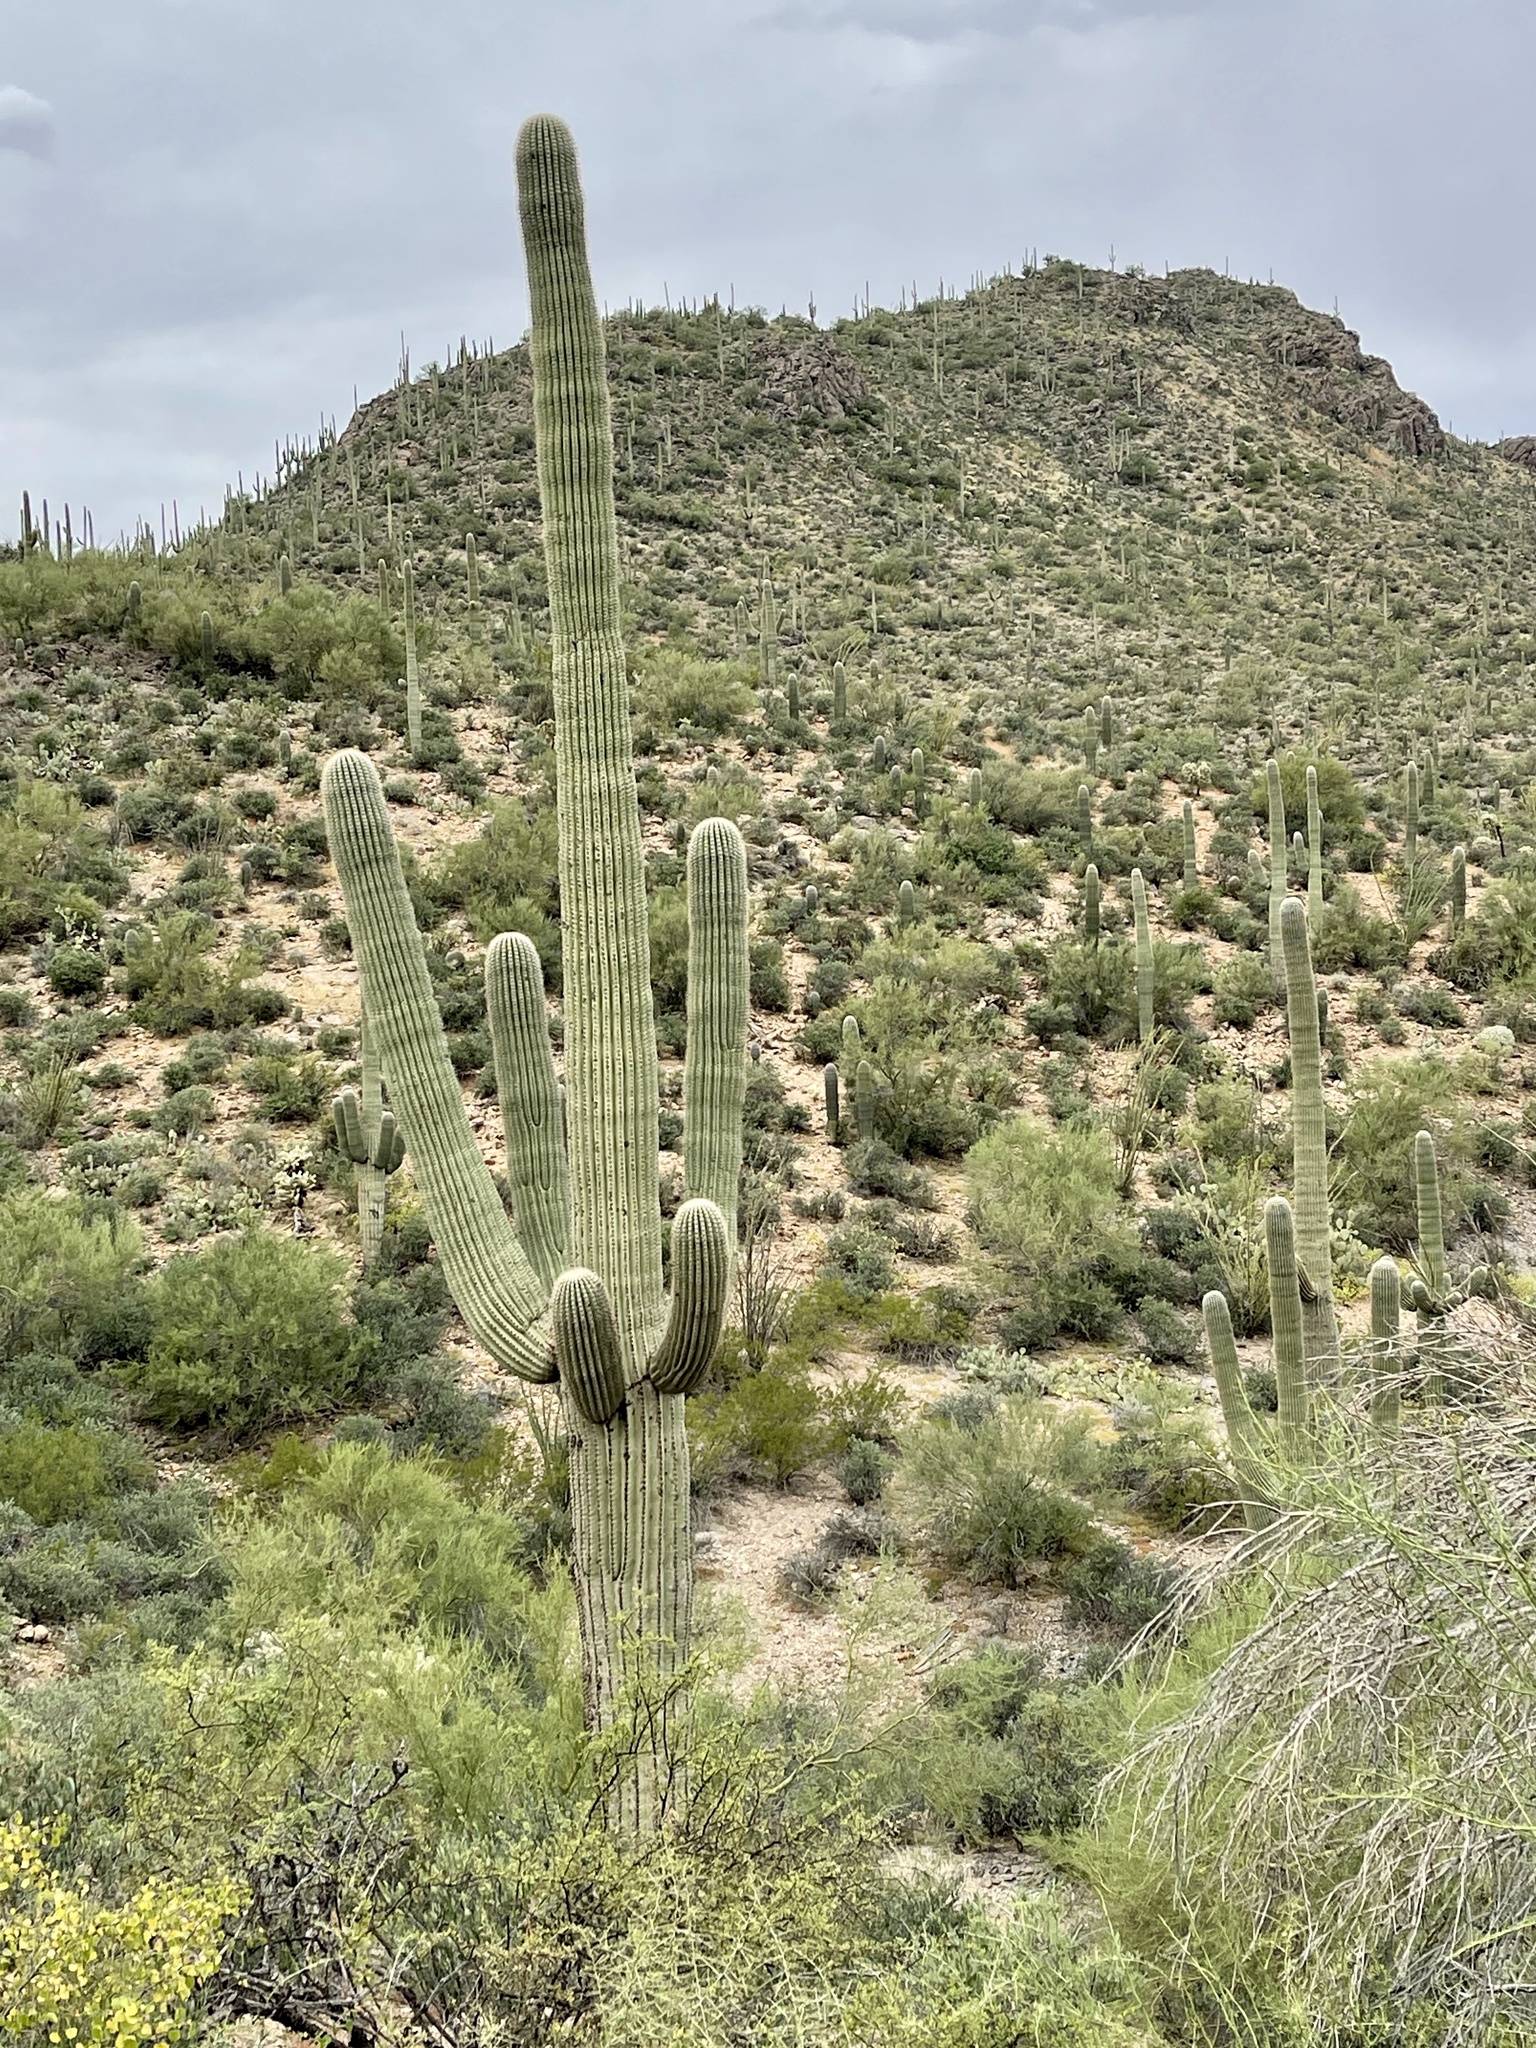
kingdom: Plantae
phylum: Tracheophyta
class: Magnoliopsida
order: Caryophyllales
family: Cactaceae
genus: Carnegiea
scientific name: Carnegiea gigantea
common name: Saguaro
